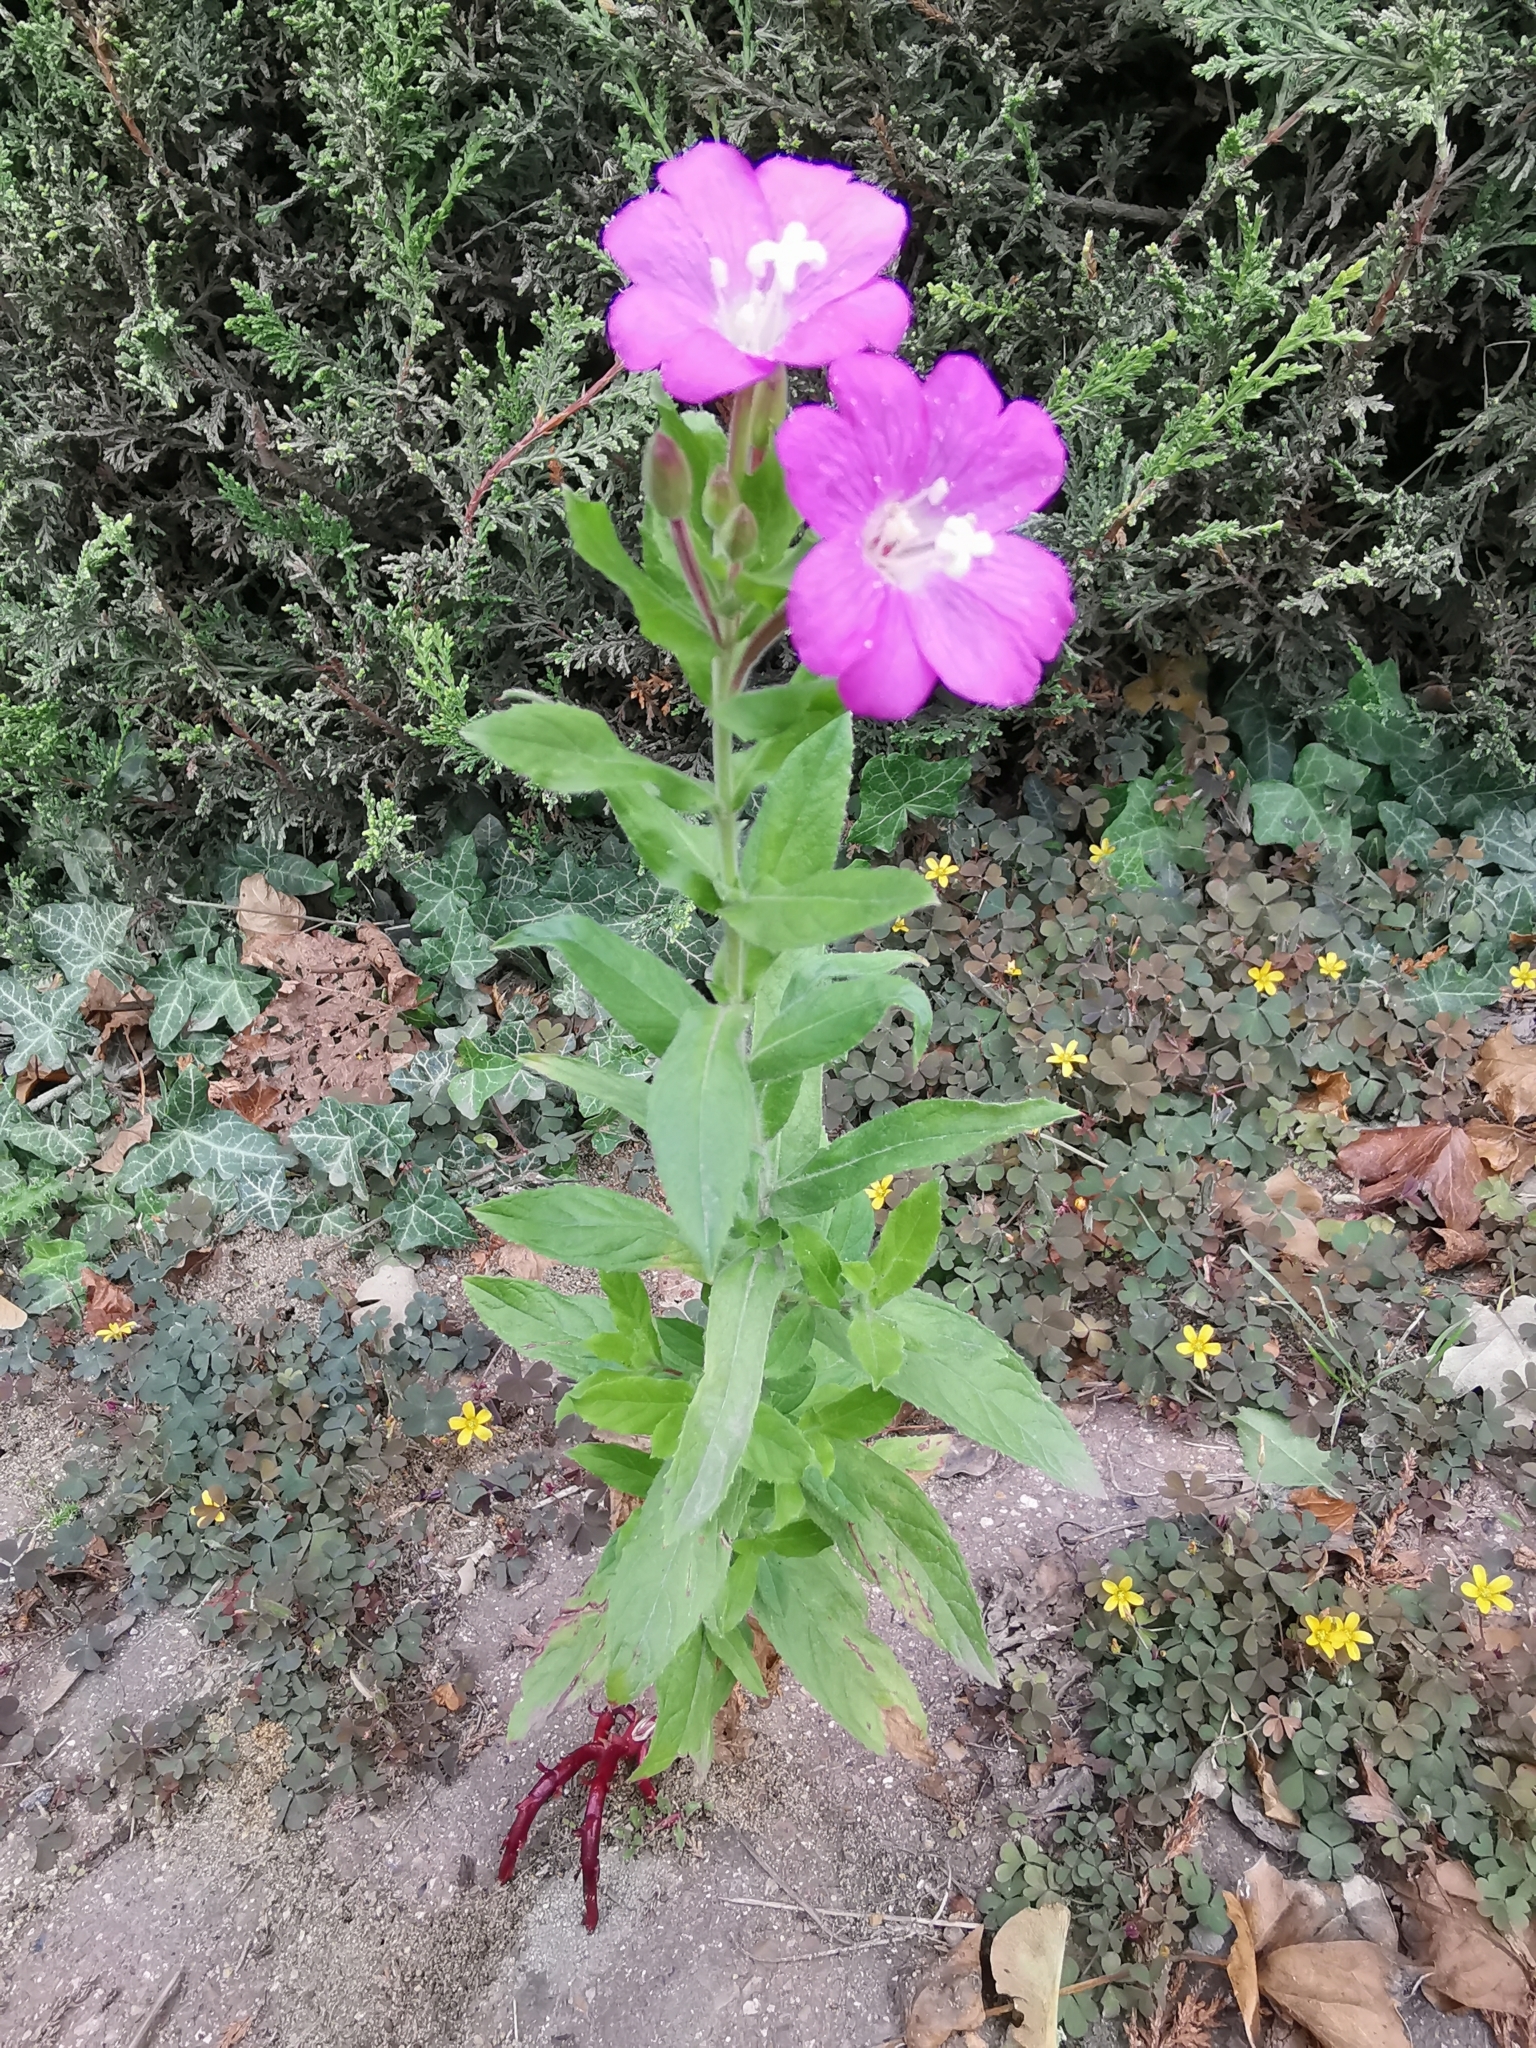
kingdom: Plantae
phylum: Tracheophyta
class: Magnoliopsida
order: Myrtales
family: Onagraceae
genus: Epilobium
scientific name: Epilobium hirsutum
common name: Great willowherb
